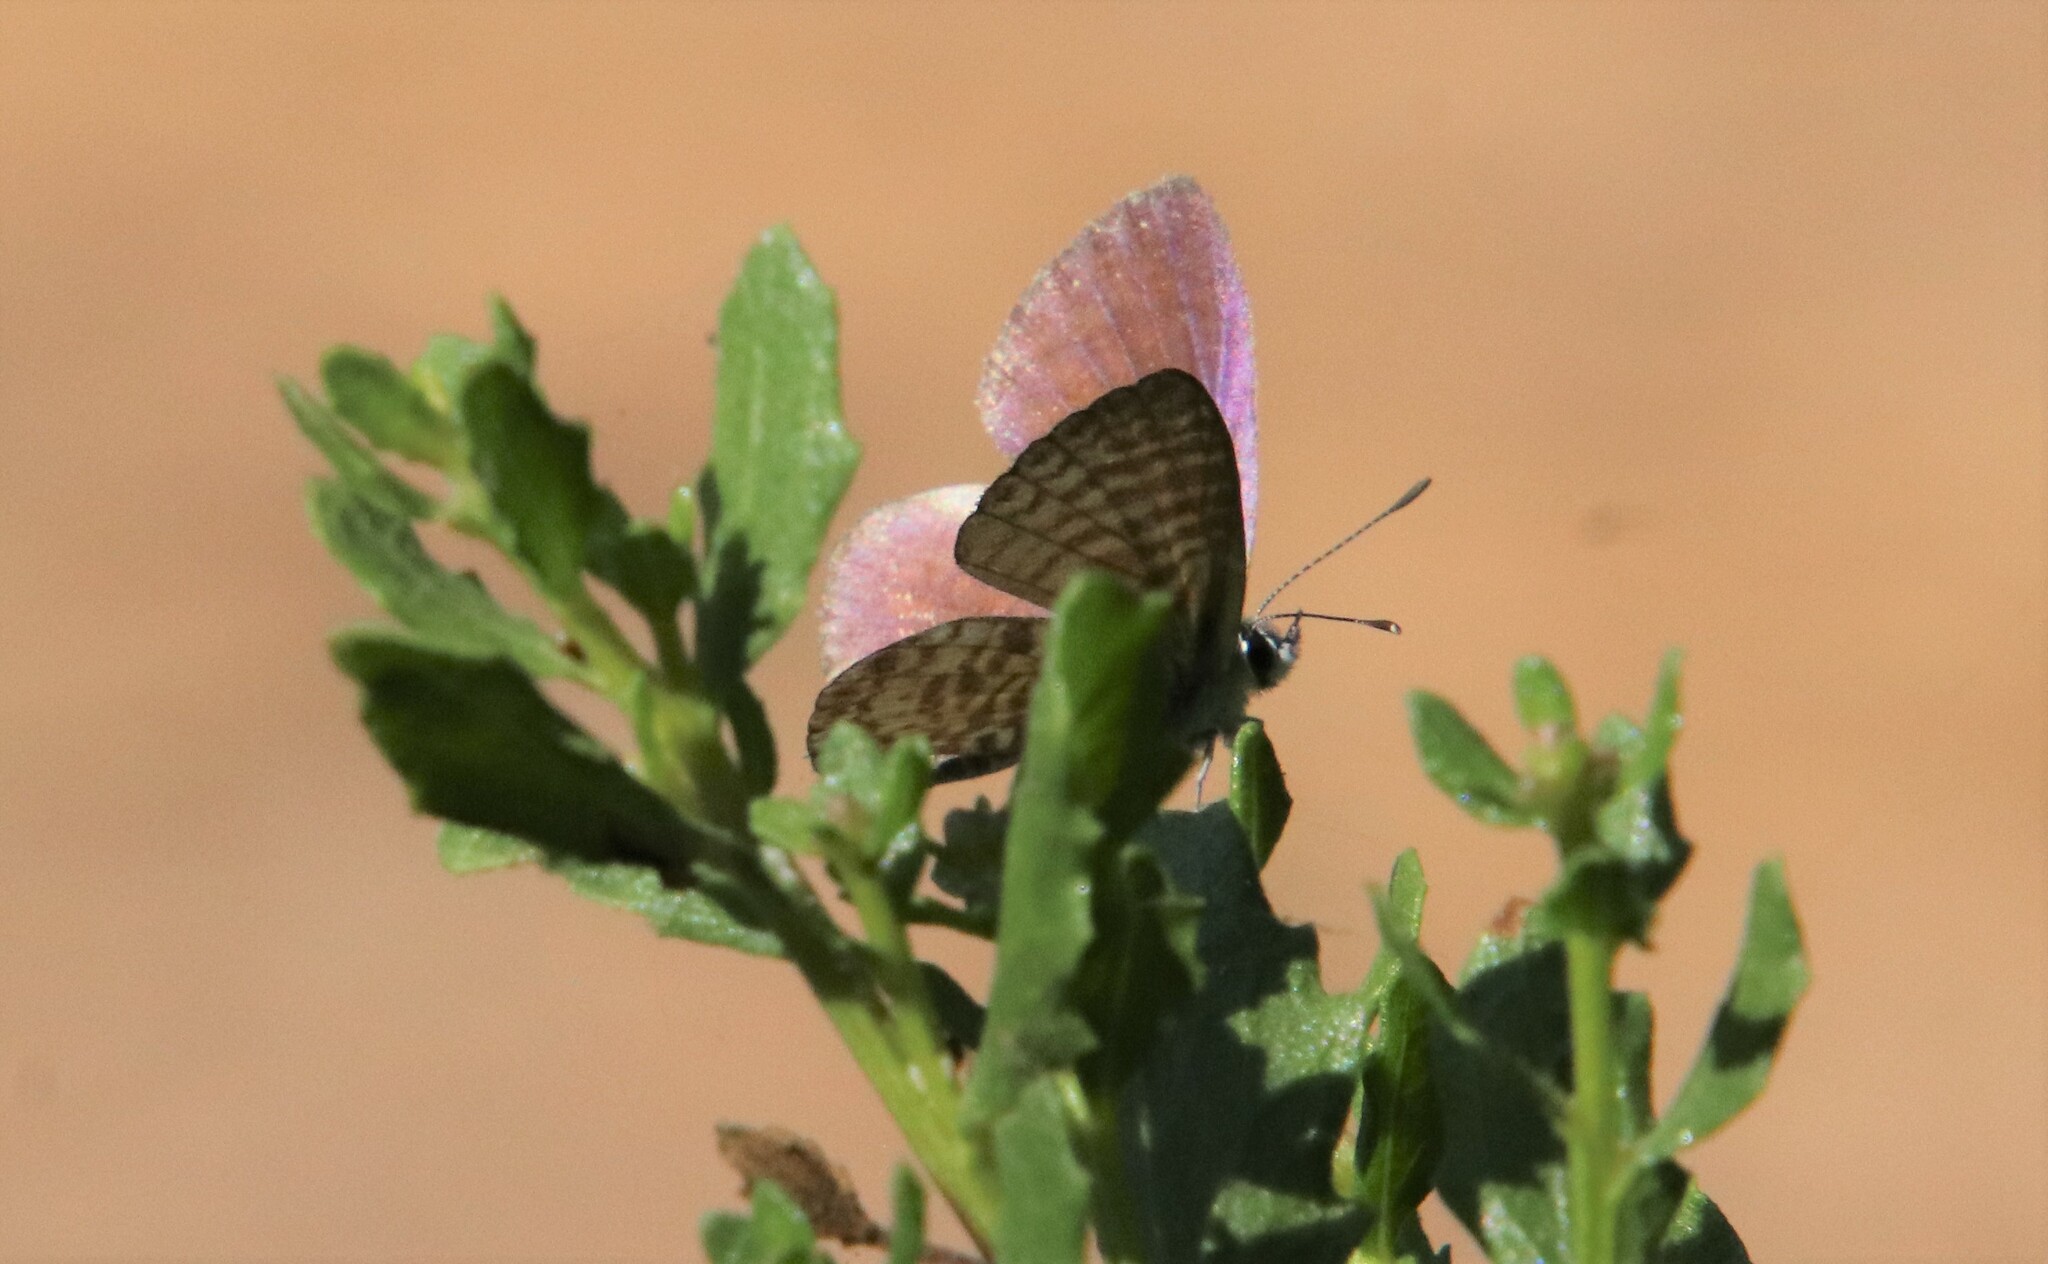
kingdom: Animalia
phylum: Arthropoda
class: Insecta
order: Lepidoptera
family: Lycaenidae
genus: Leptotes
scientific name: Leptotes marina
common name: Marine blue
